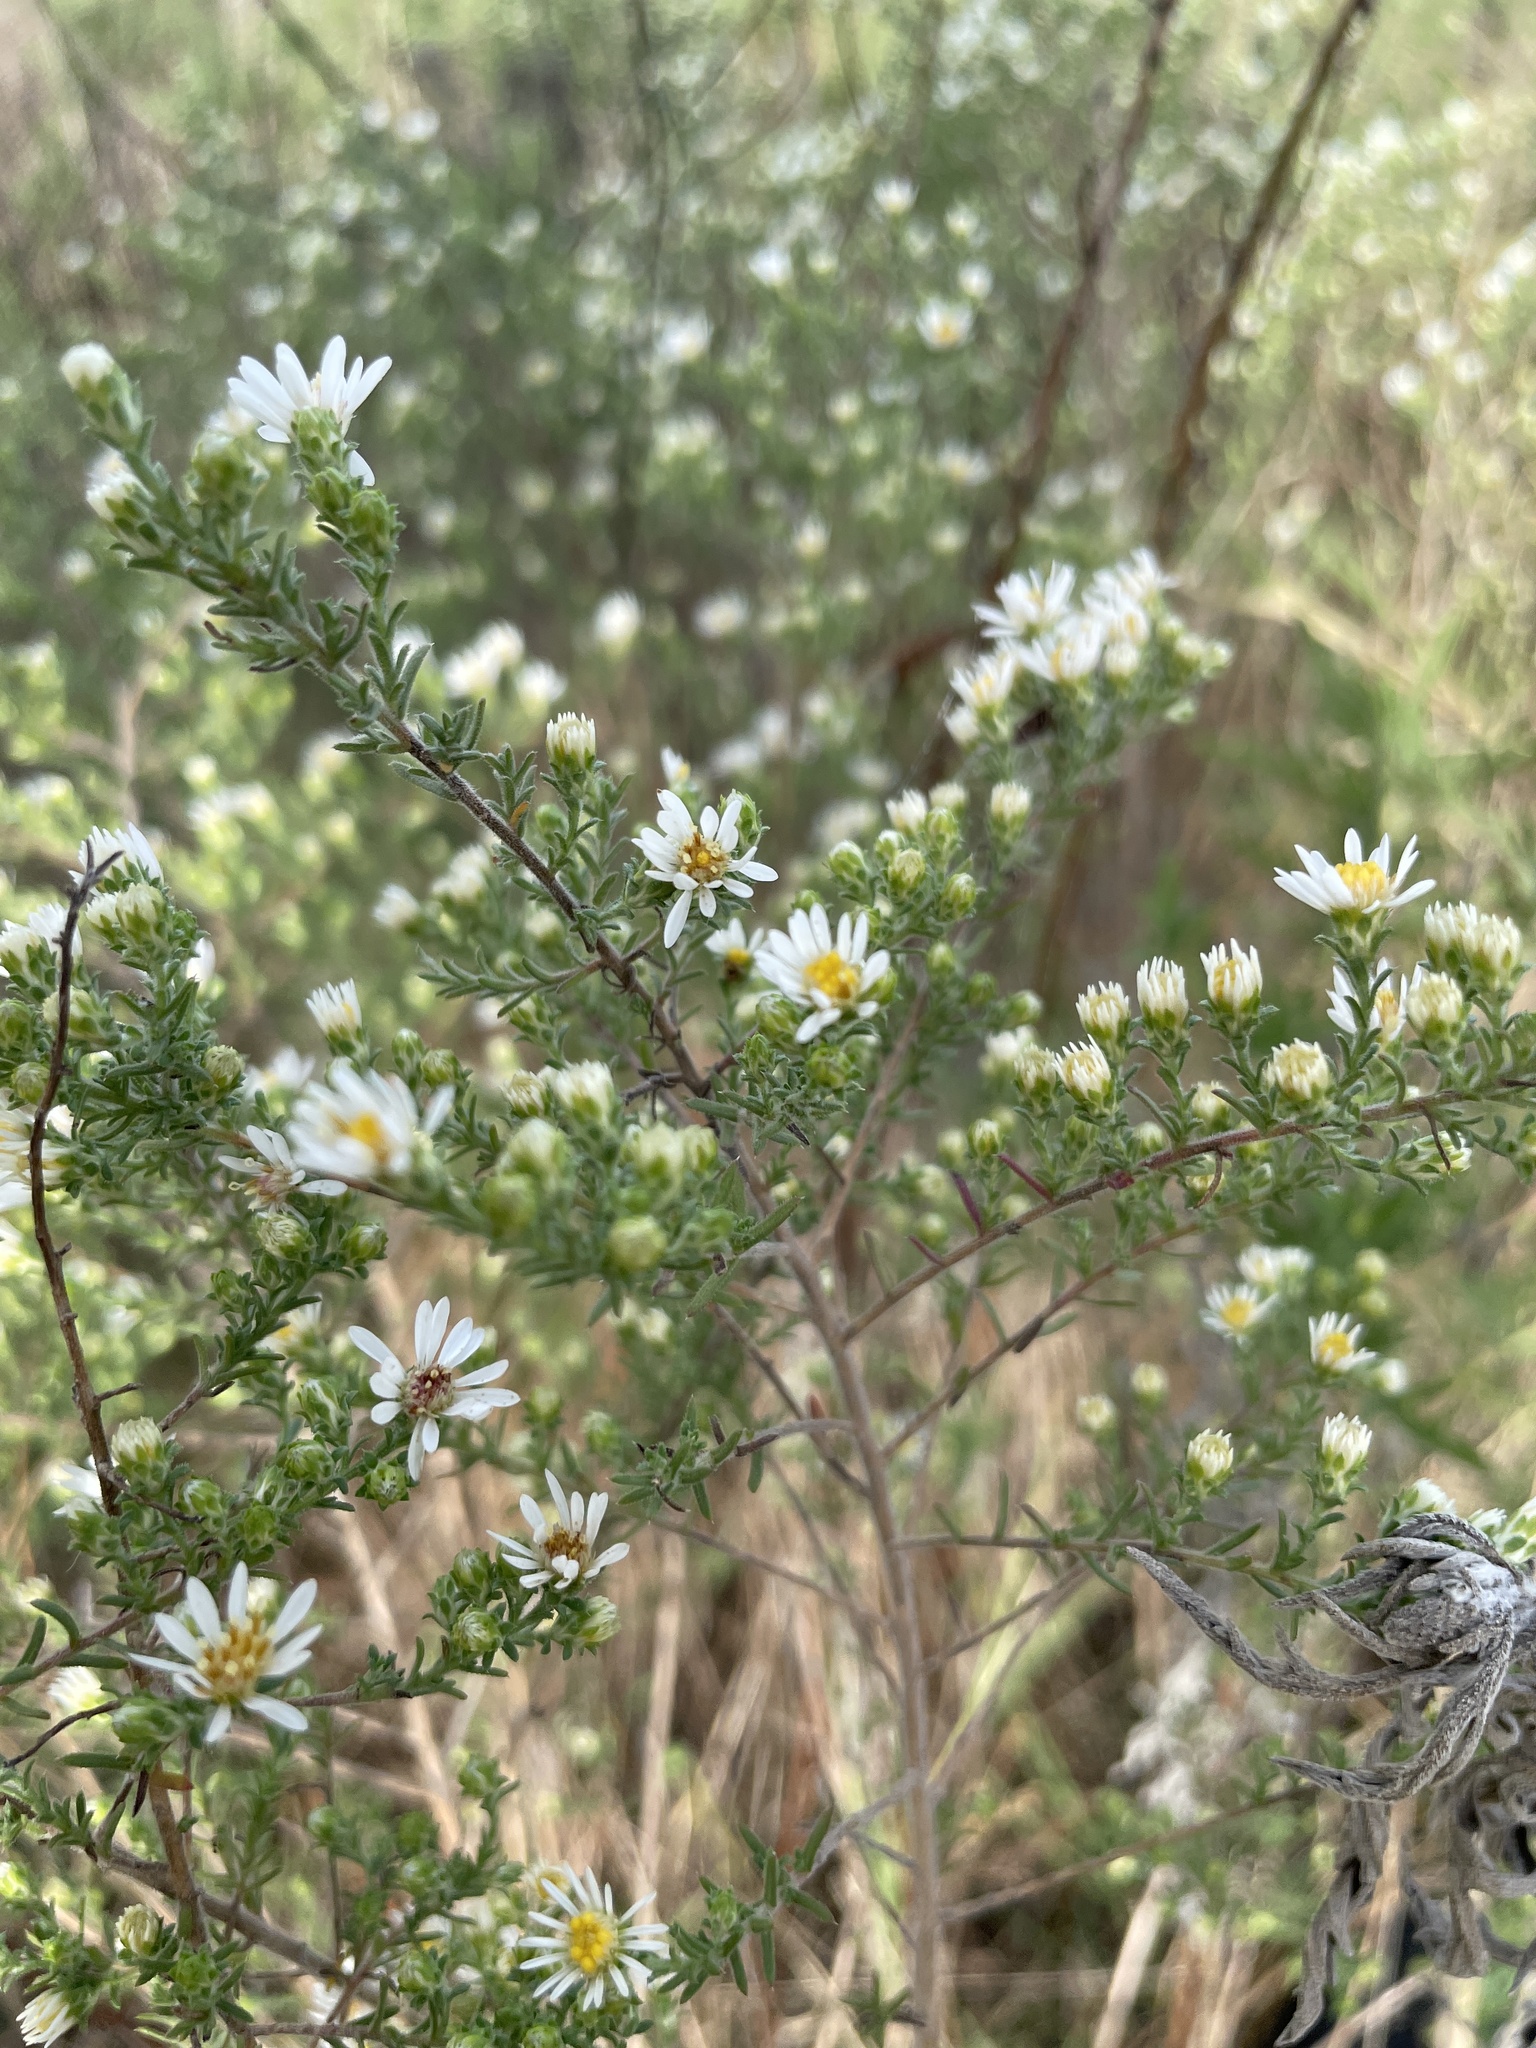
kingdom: Plantae
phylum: Tracheophyta
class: Magnoliopsida
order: Asterales
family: Asteraceae
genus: Symphyotrichum
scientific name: Symphyotrichum ericoides
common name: Heath aster
